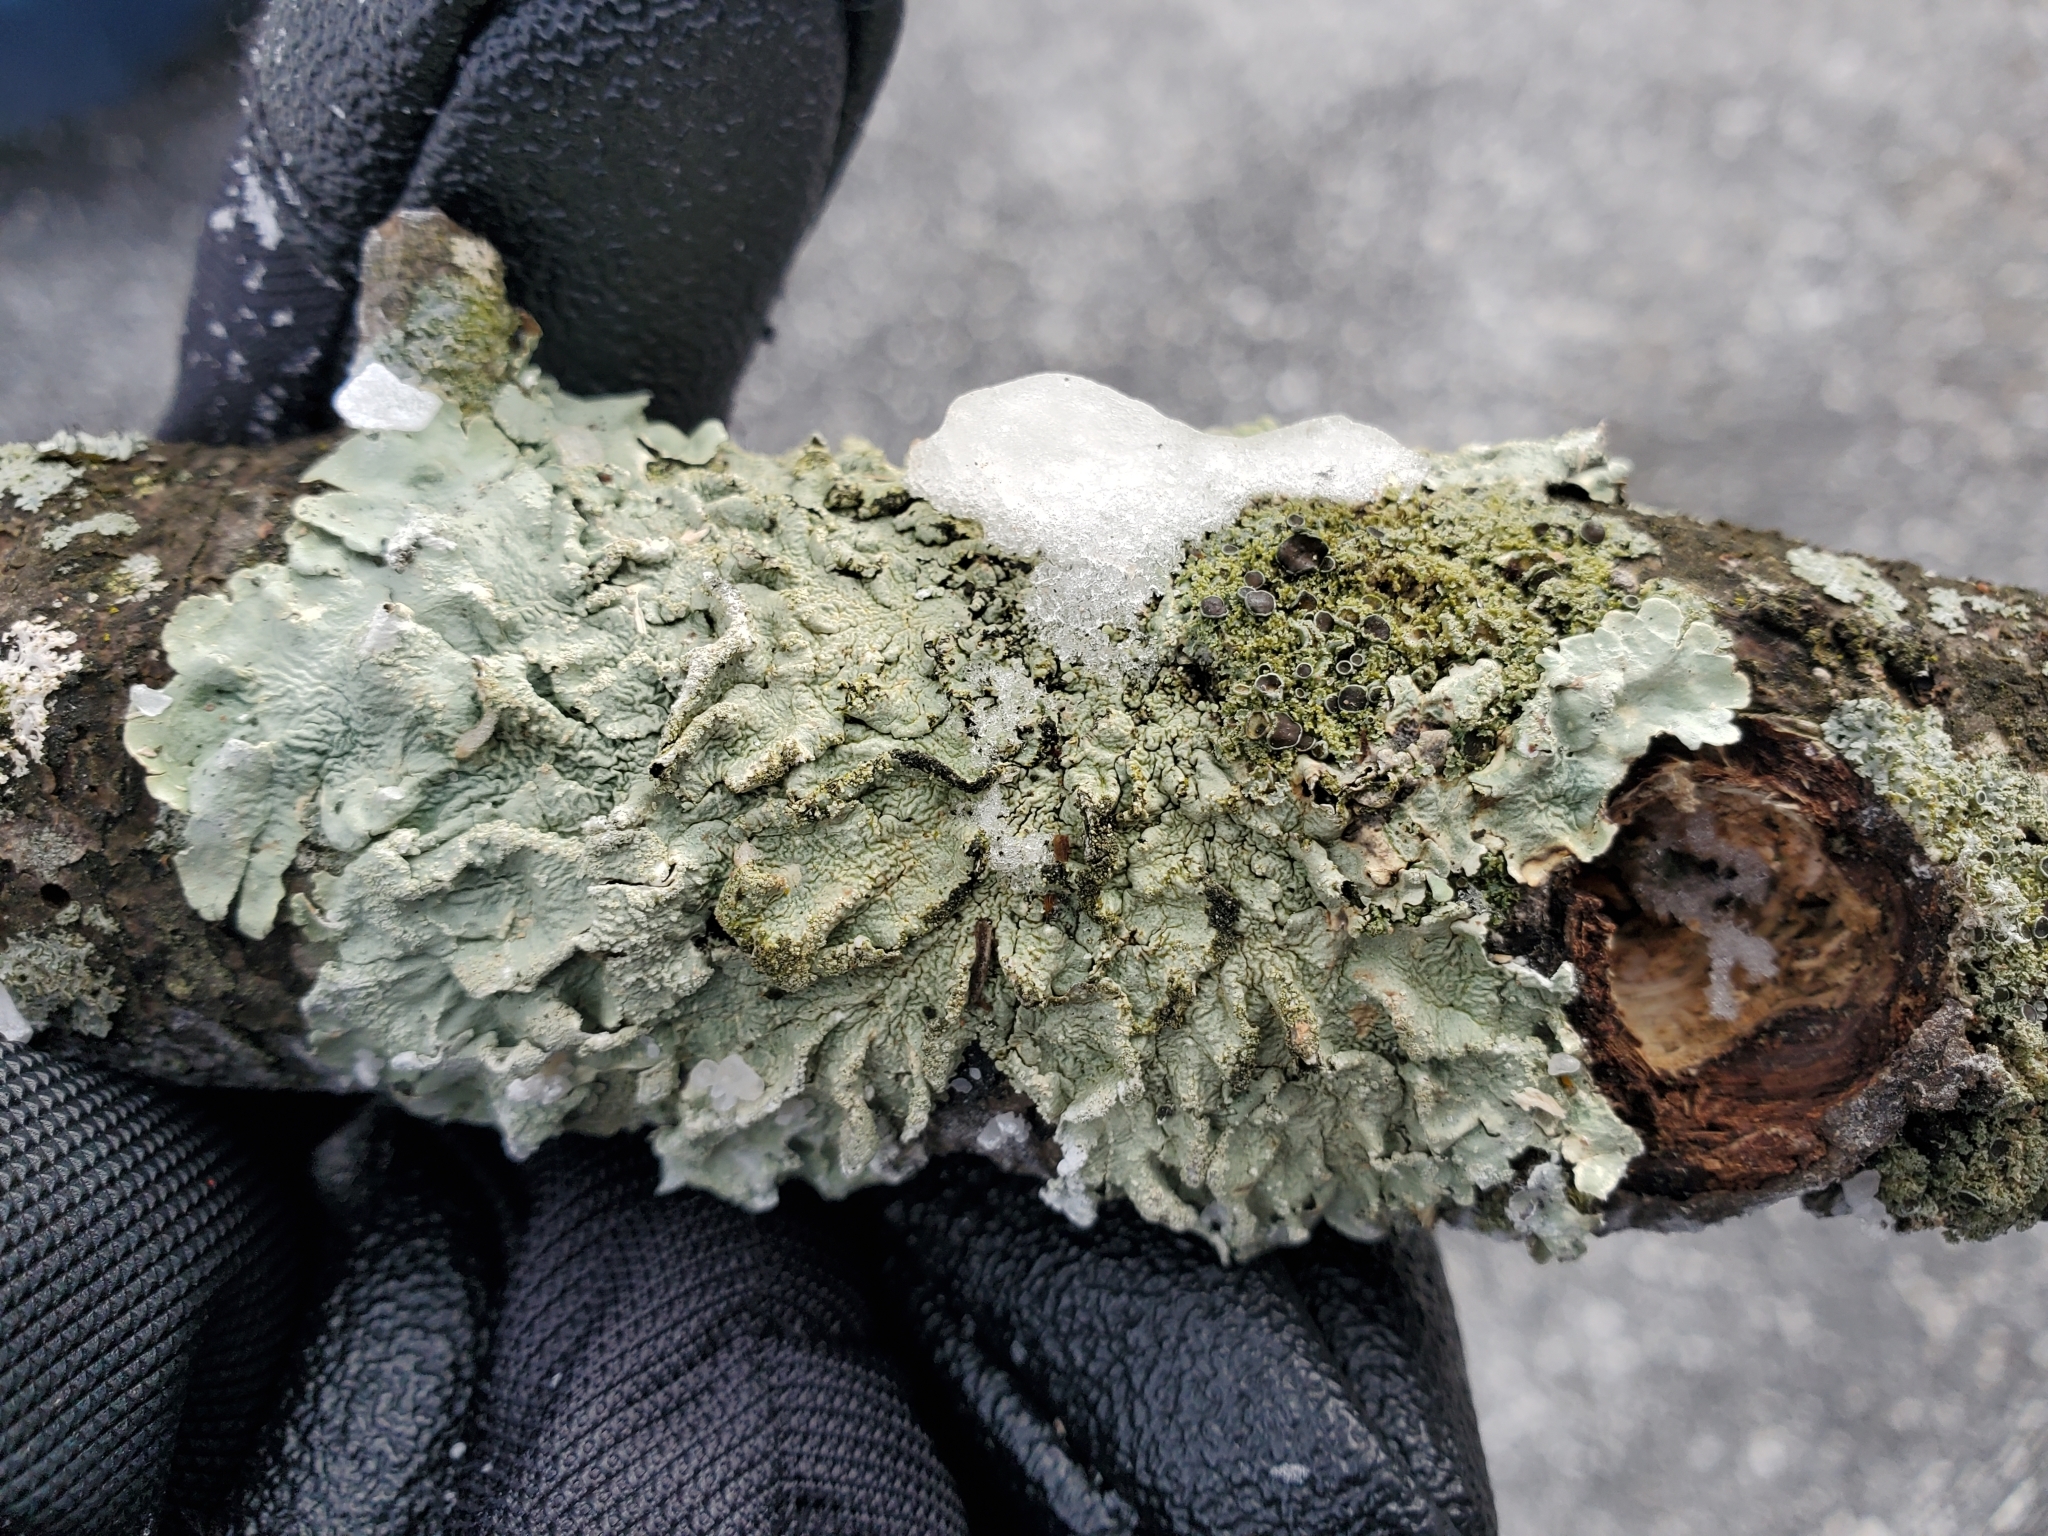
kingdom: Fungi
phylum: Ascomycota
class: Lecanoromycetes
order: Caliciales
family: Physciaceae
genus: Physcia
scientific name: Physcia millegrana
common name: Rosette lichen
